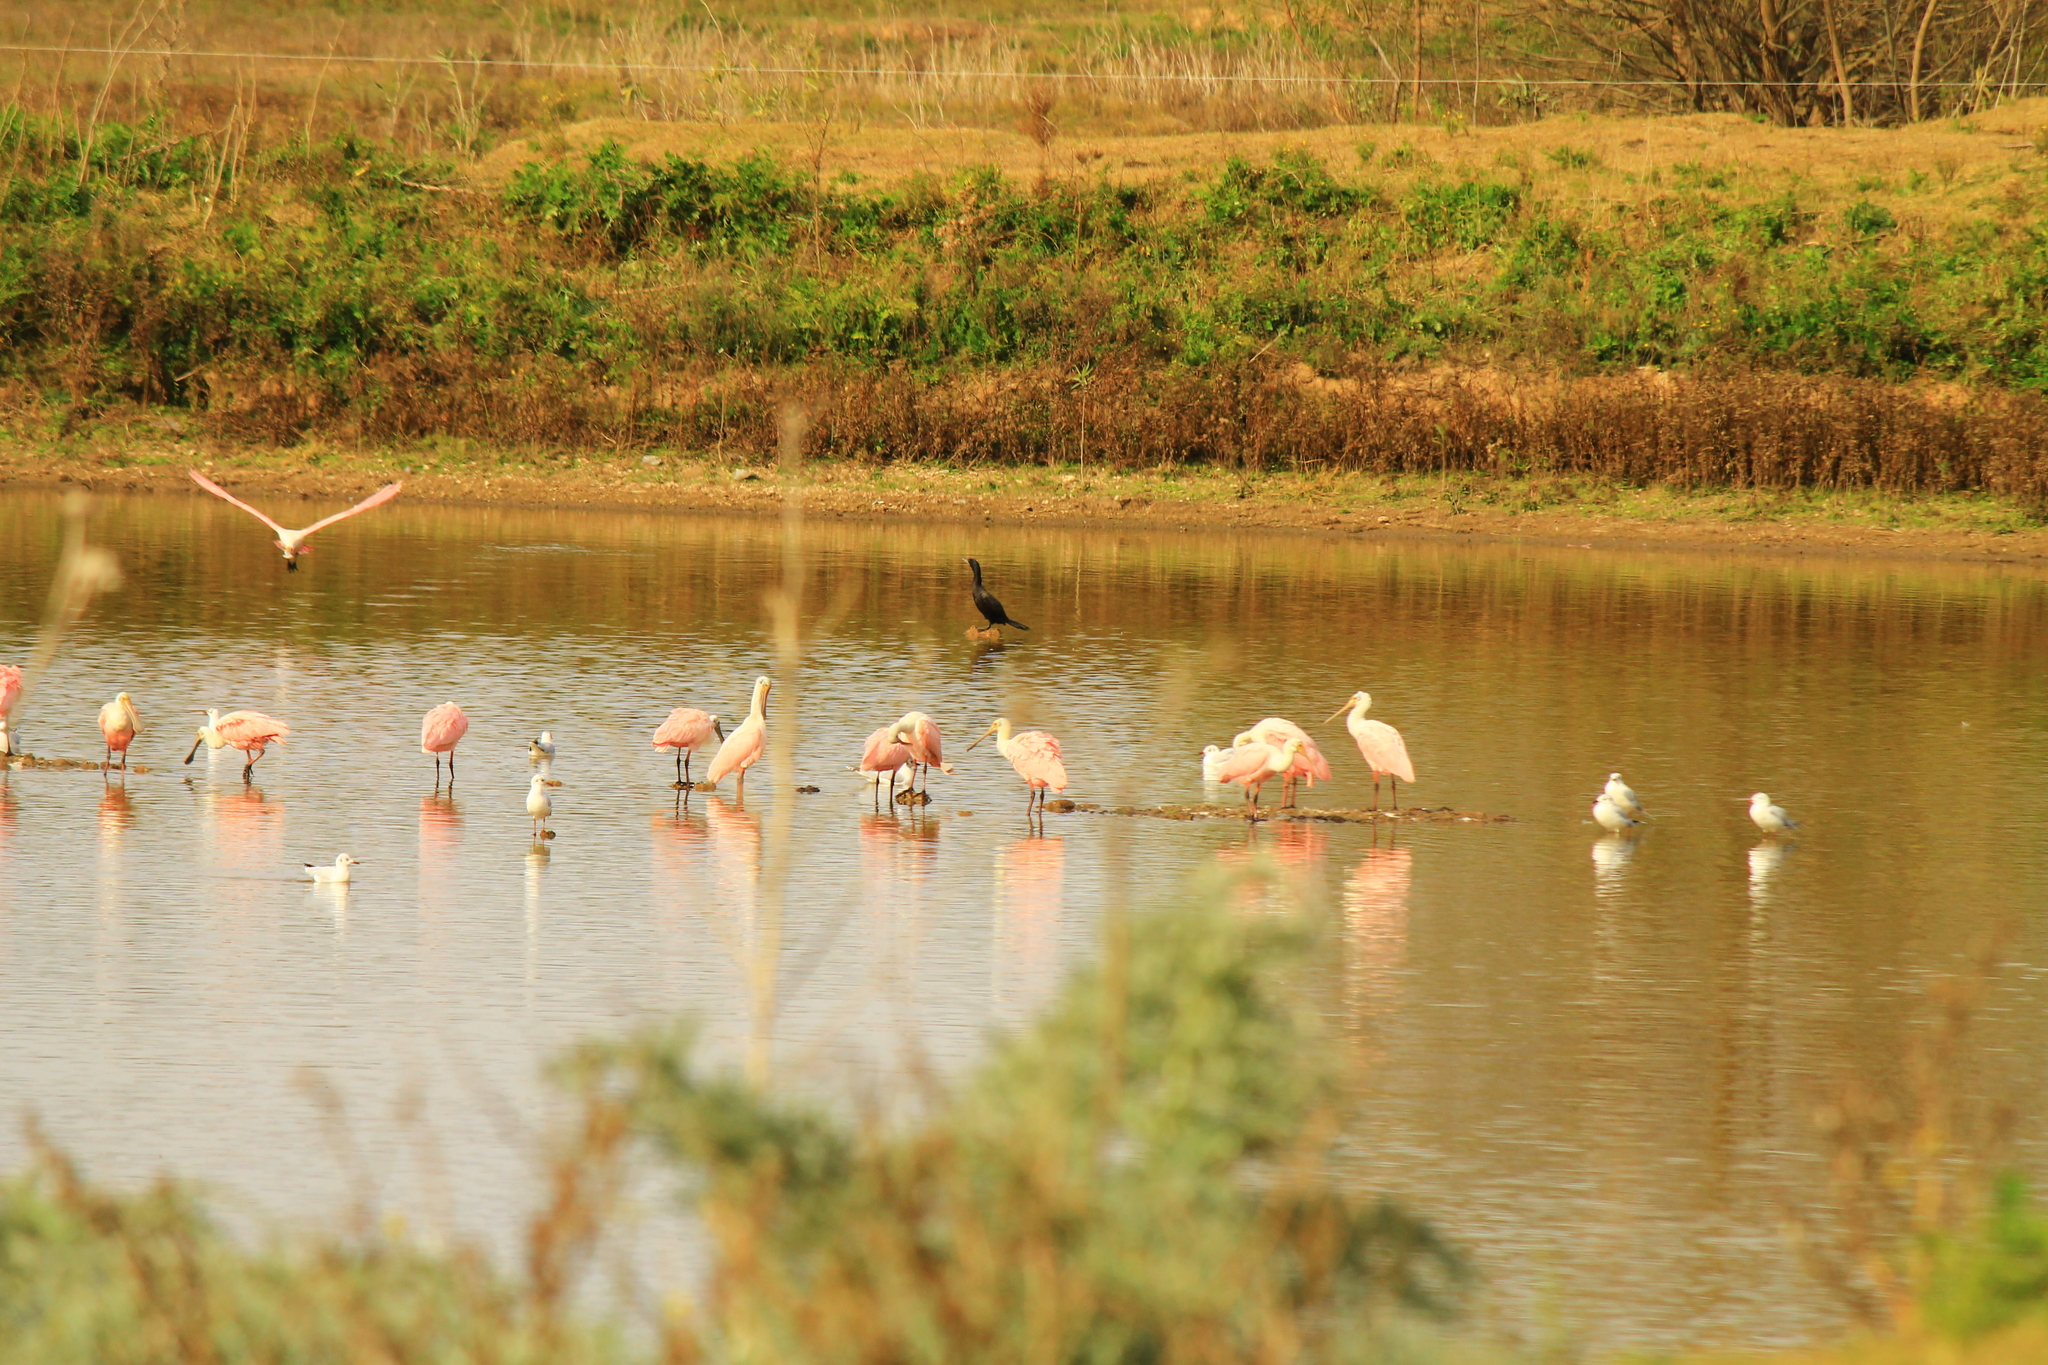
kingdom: Animalia
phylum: Chordata
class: Aves
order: Pelecaniformes
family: Threskiornithidae
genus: Platalea
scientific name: Platalea ajaja
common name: Roseate spoonbill
